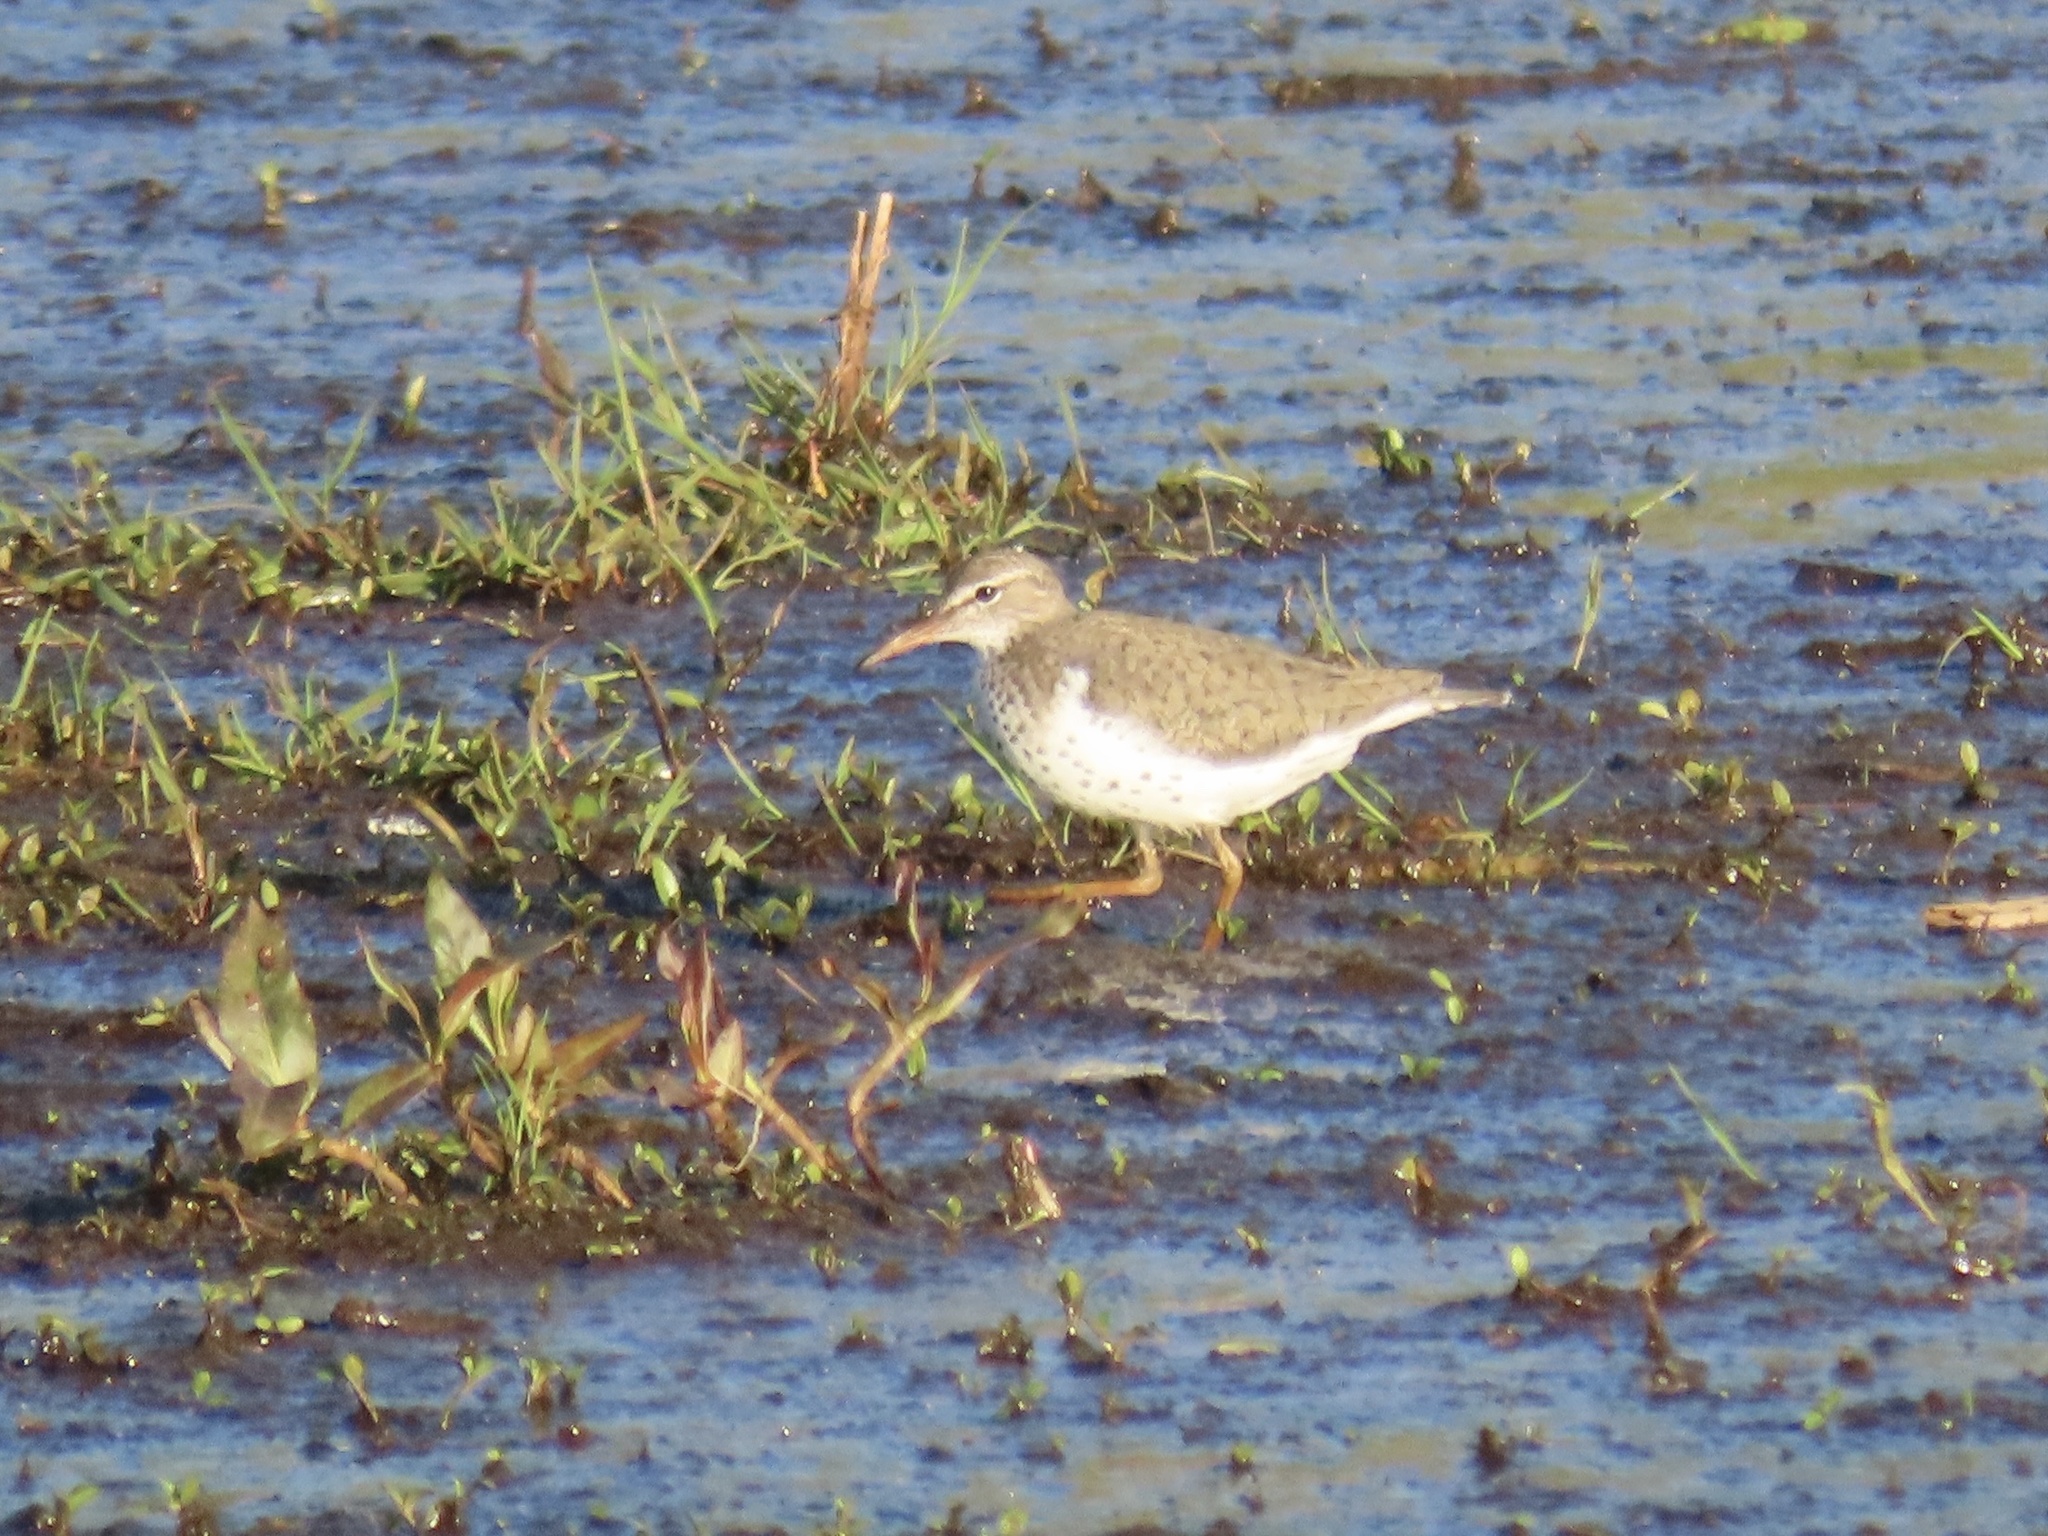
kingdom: Animalia
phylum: Chordata
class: Aves
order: Charadriiformes
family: Scolopacidae
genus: Actitis
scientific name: Actitis macularius
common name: Spotted sandpiper
